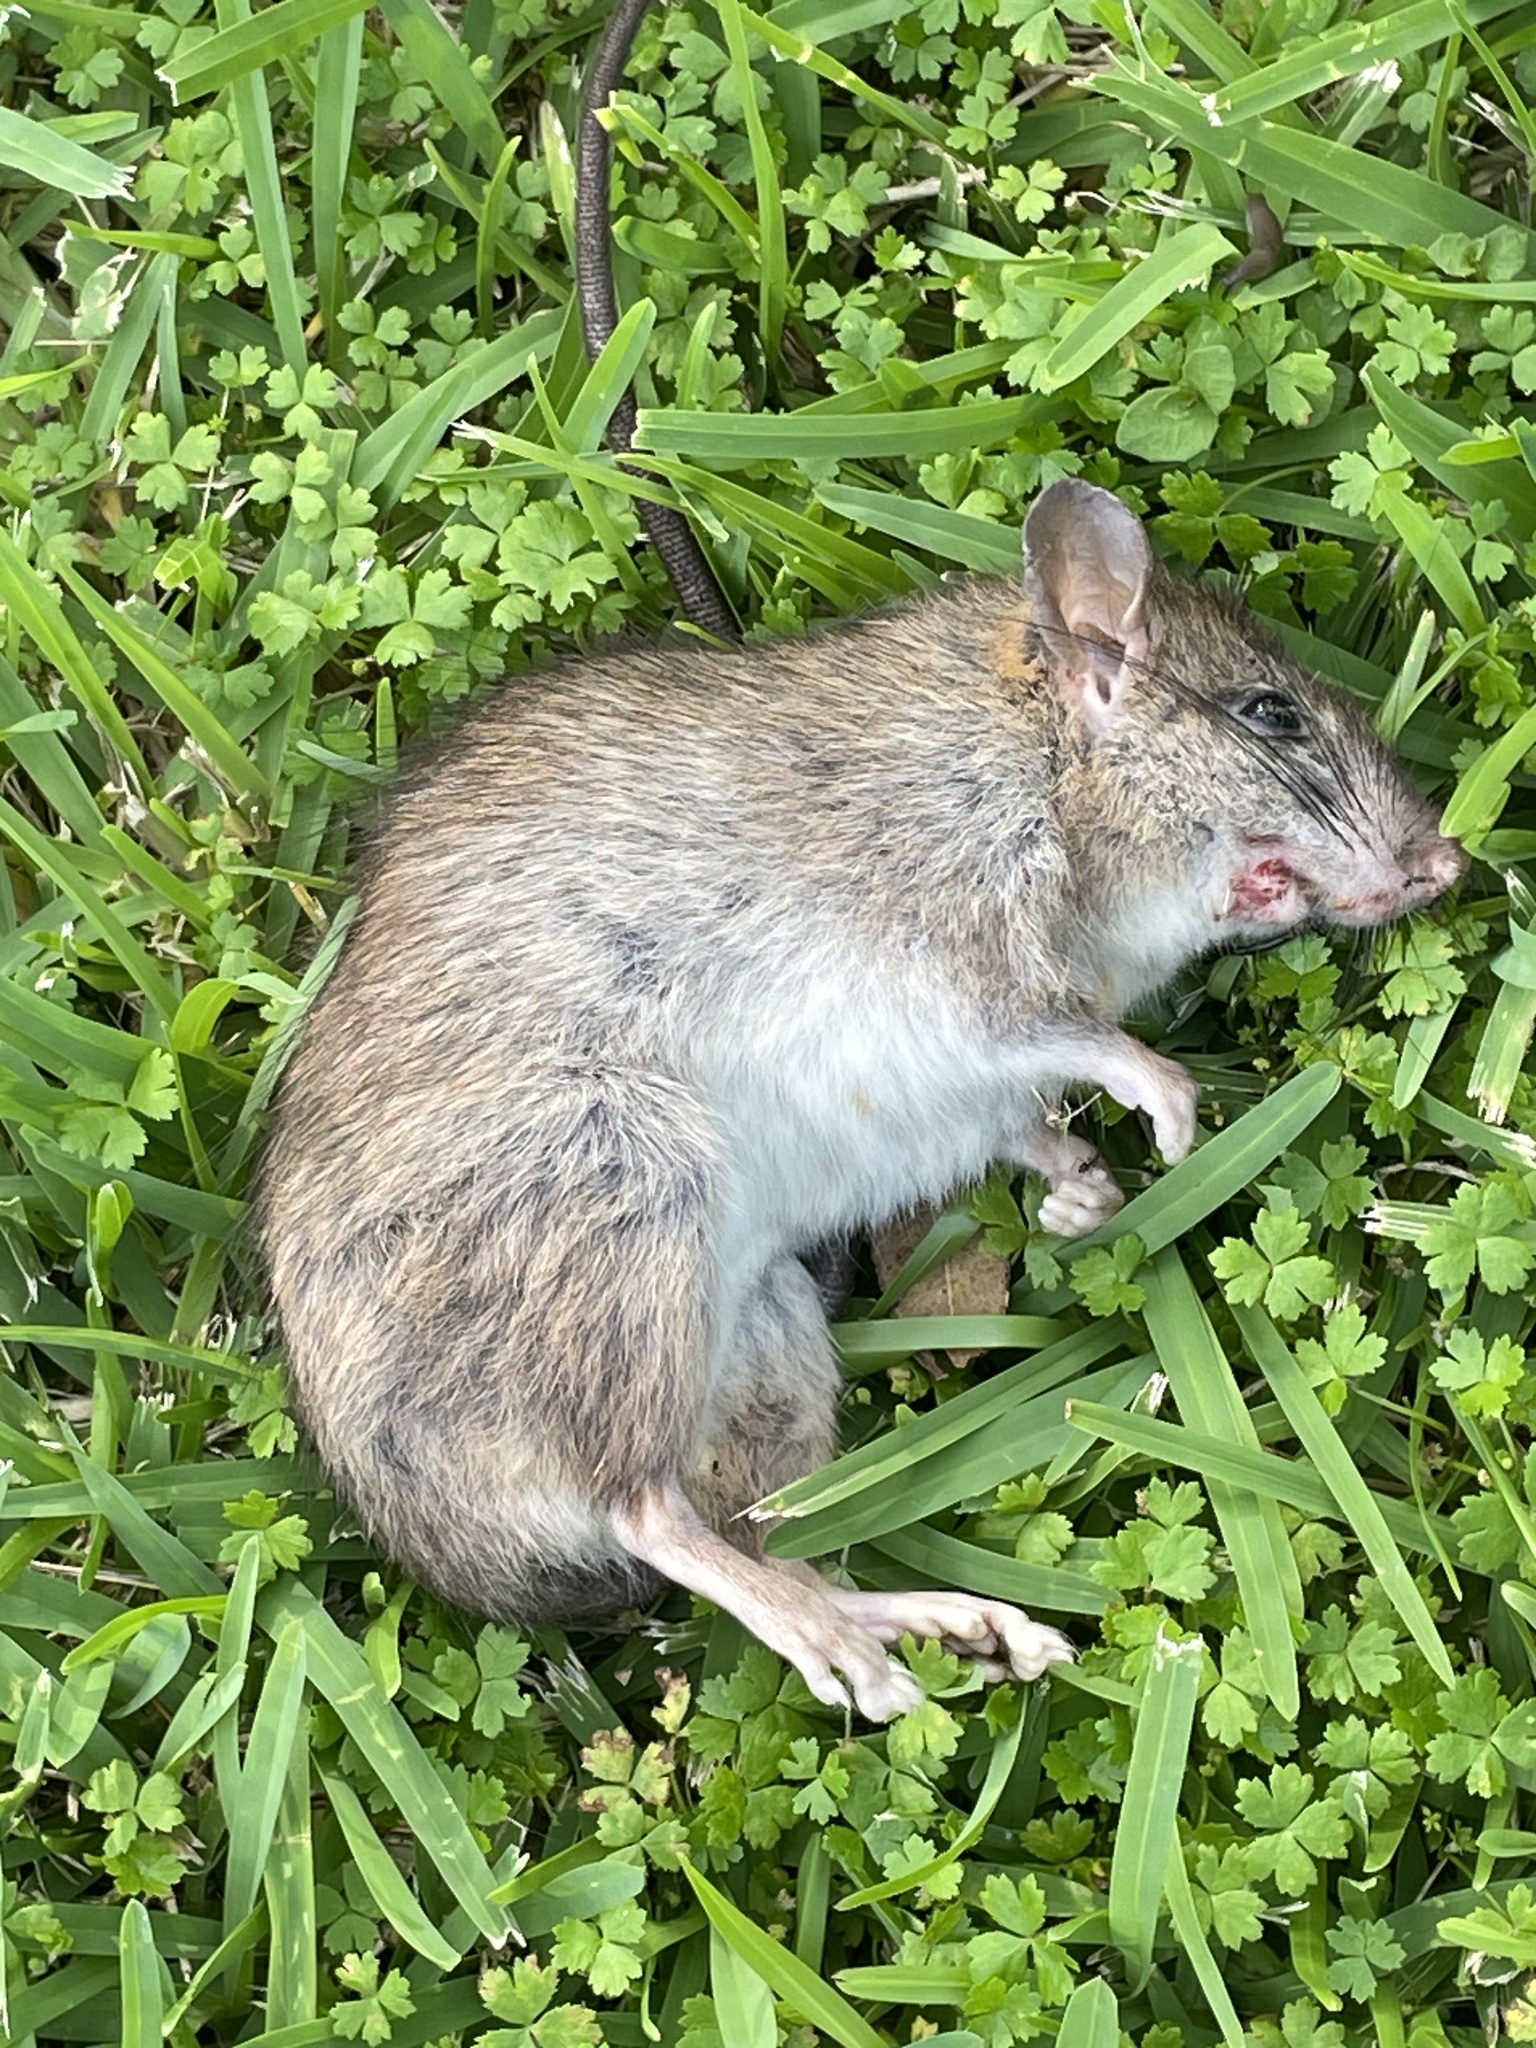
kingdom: Animalia
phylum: Chordata
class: Mammalia
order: Rodentia
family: Muridae
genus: Rattus
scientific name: Rattus rattus
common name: Black rat
